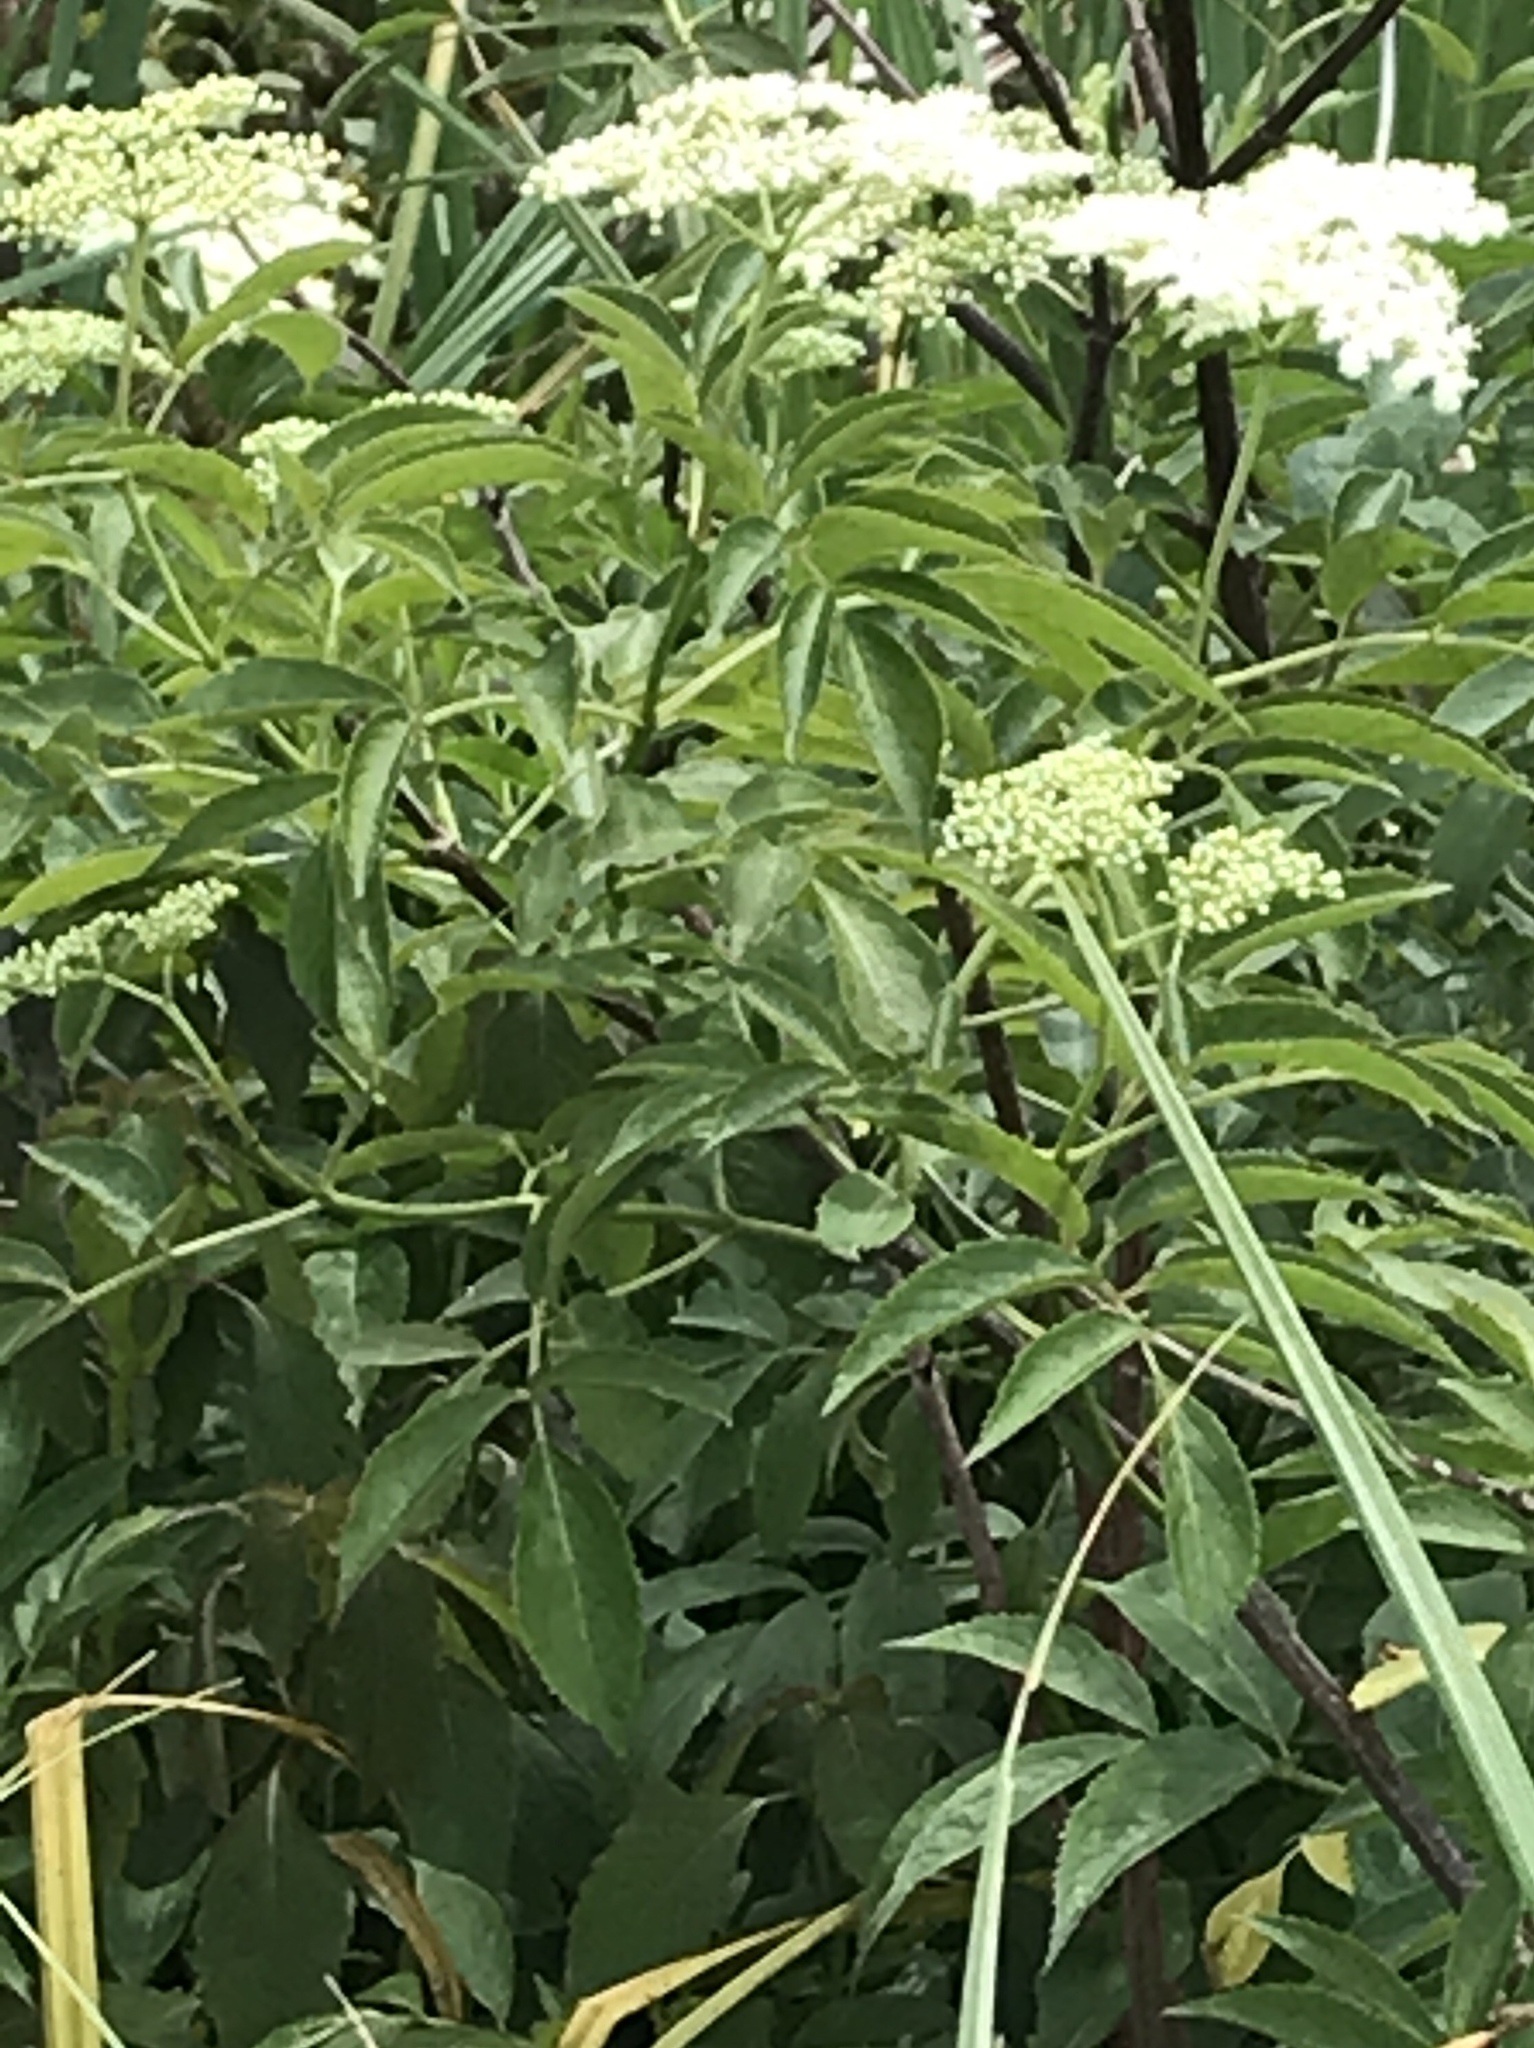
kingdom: Plantae
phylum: Tracheophyta
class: Magnoliopsida
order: Dipsacales
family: Viburnaceae
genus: Sambucus
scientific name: Sambucus canadensis
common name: American elder
